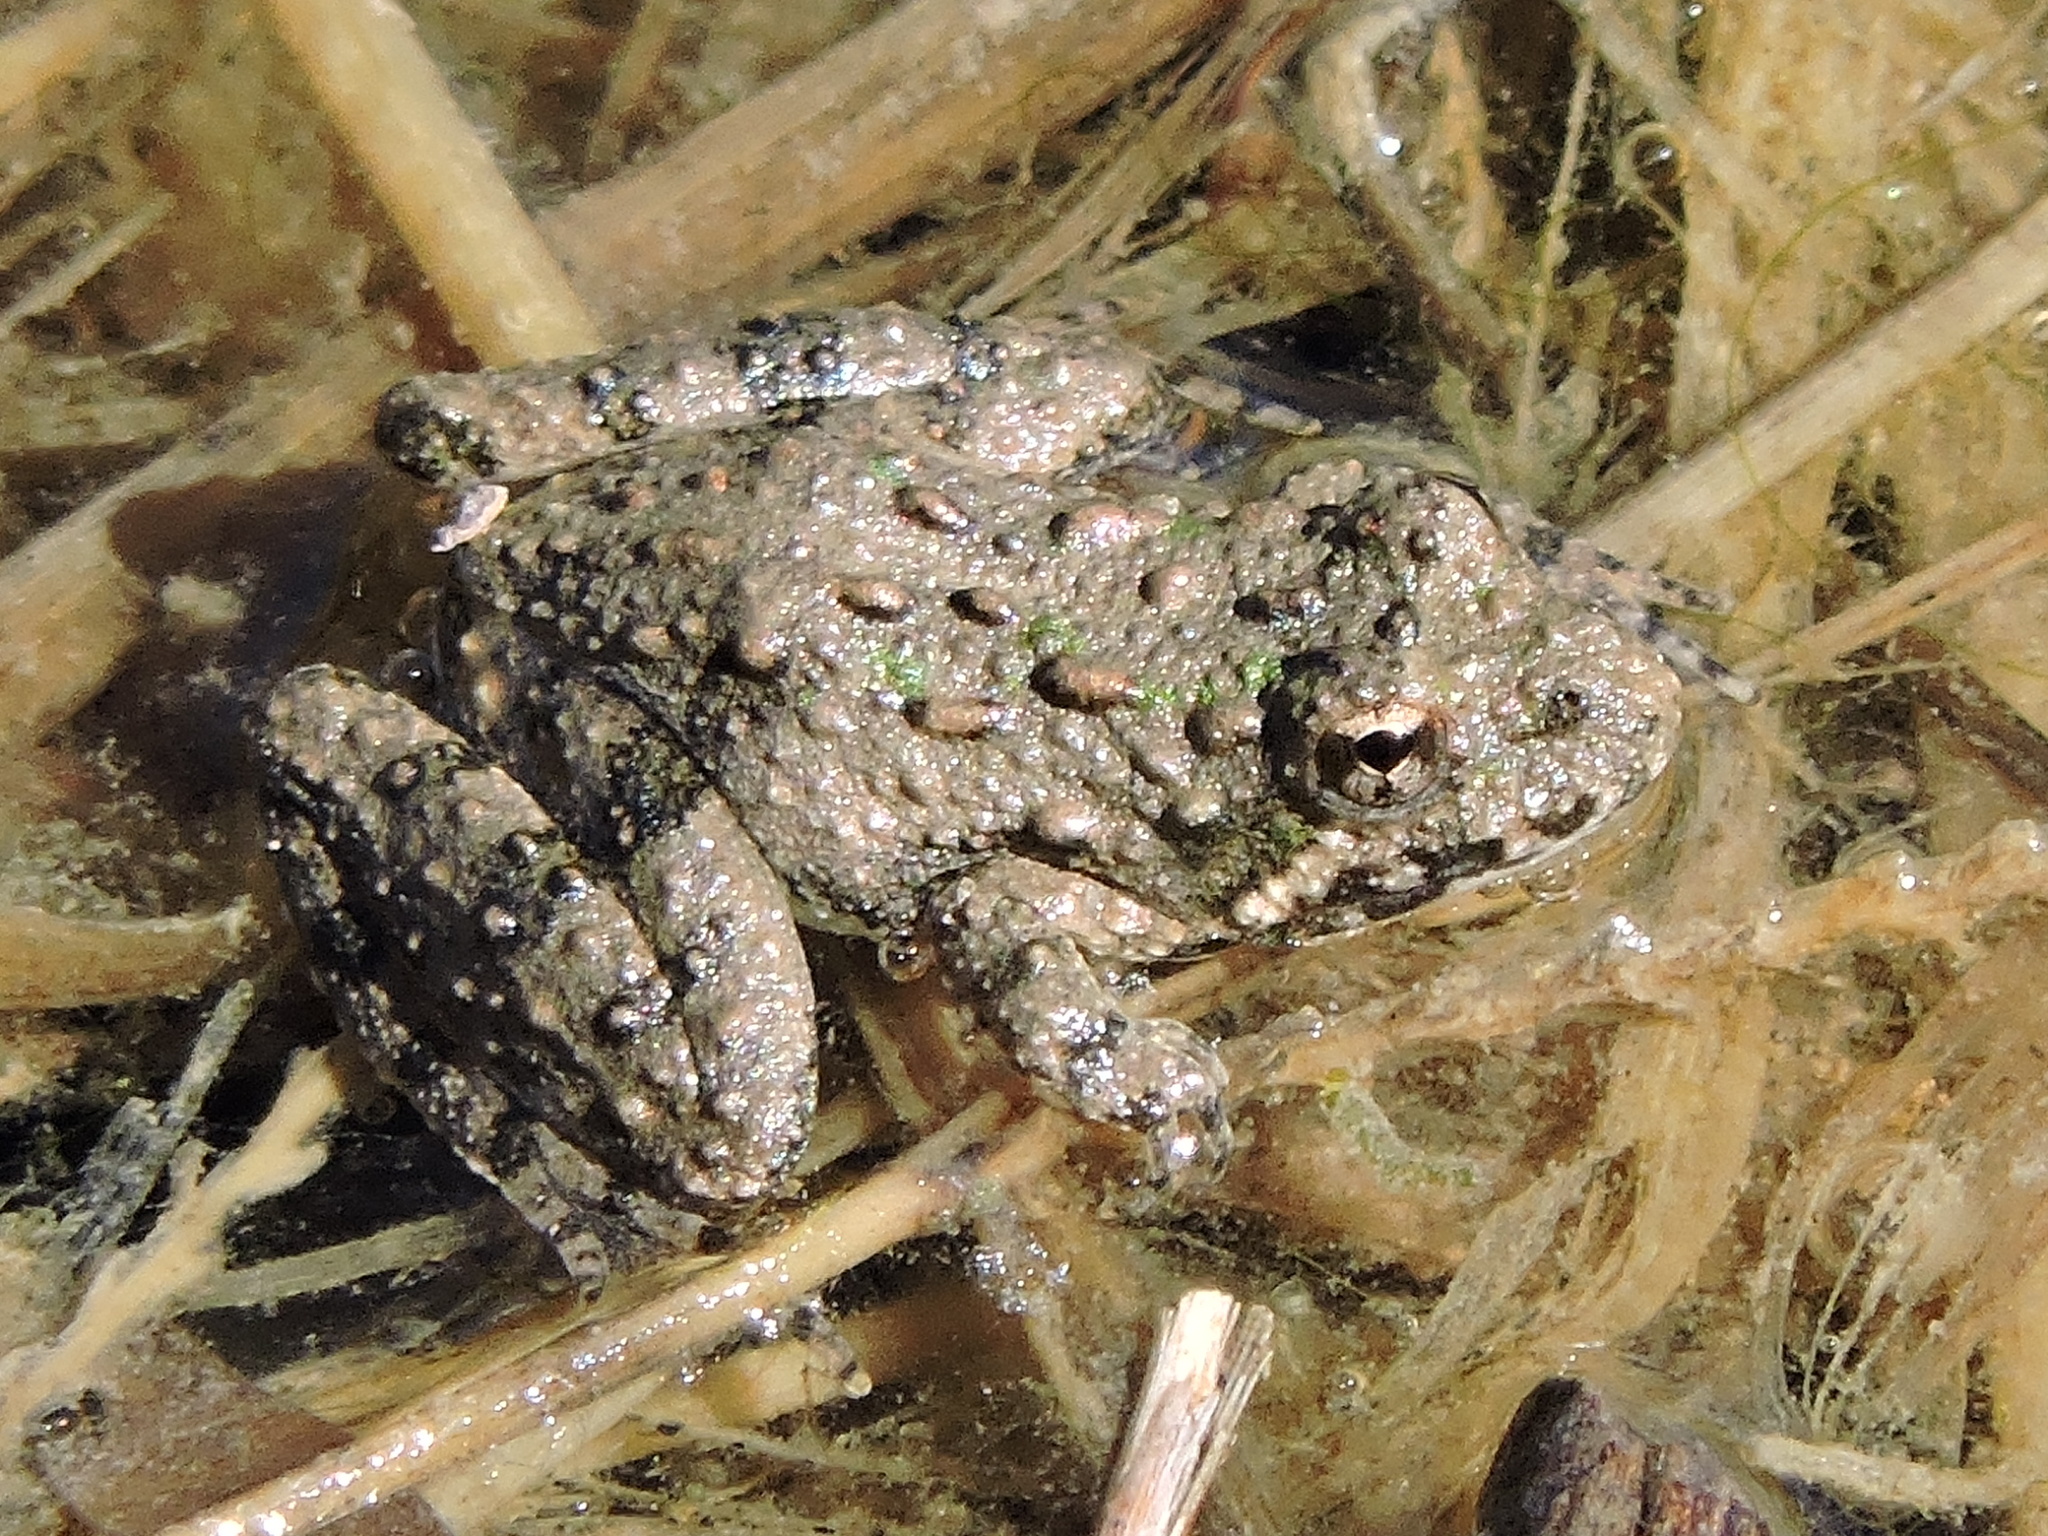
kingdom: Animalia
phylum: Chordata
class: Amphibia
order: Anura
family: Hylidae
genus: Acris
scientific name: Acris blanchardi
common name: Blanchard's cricket frog
